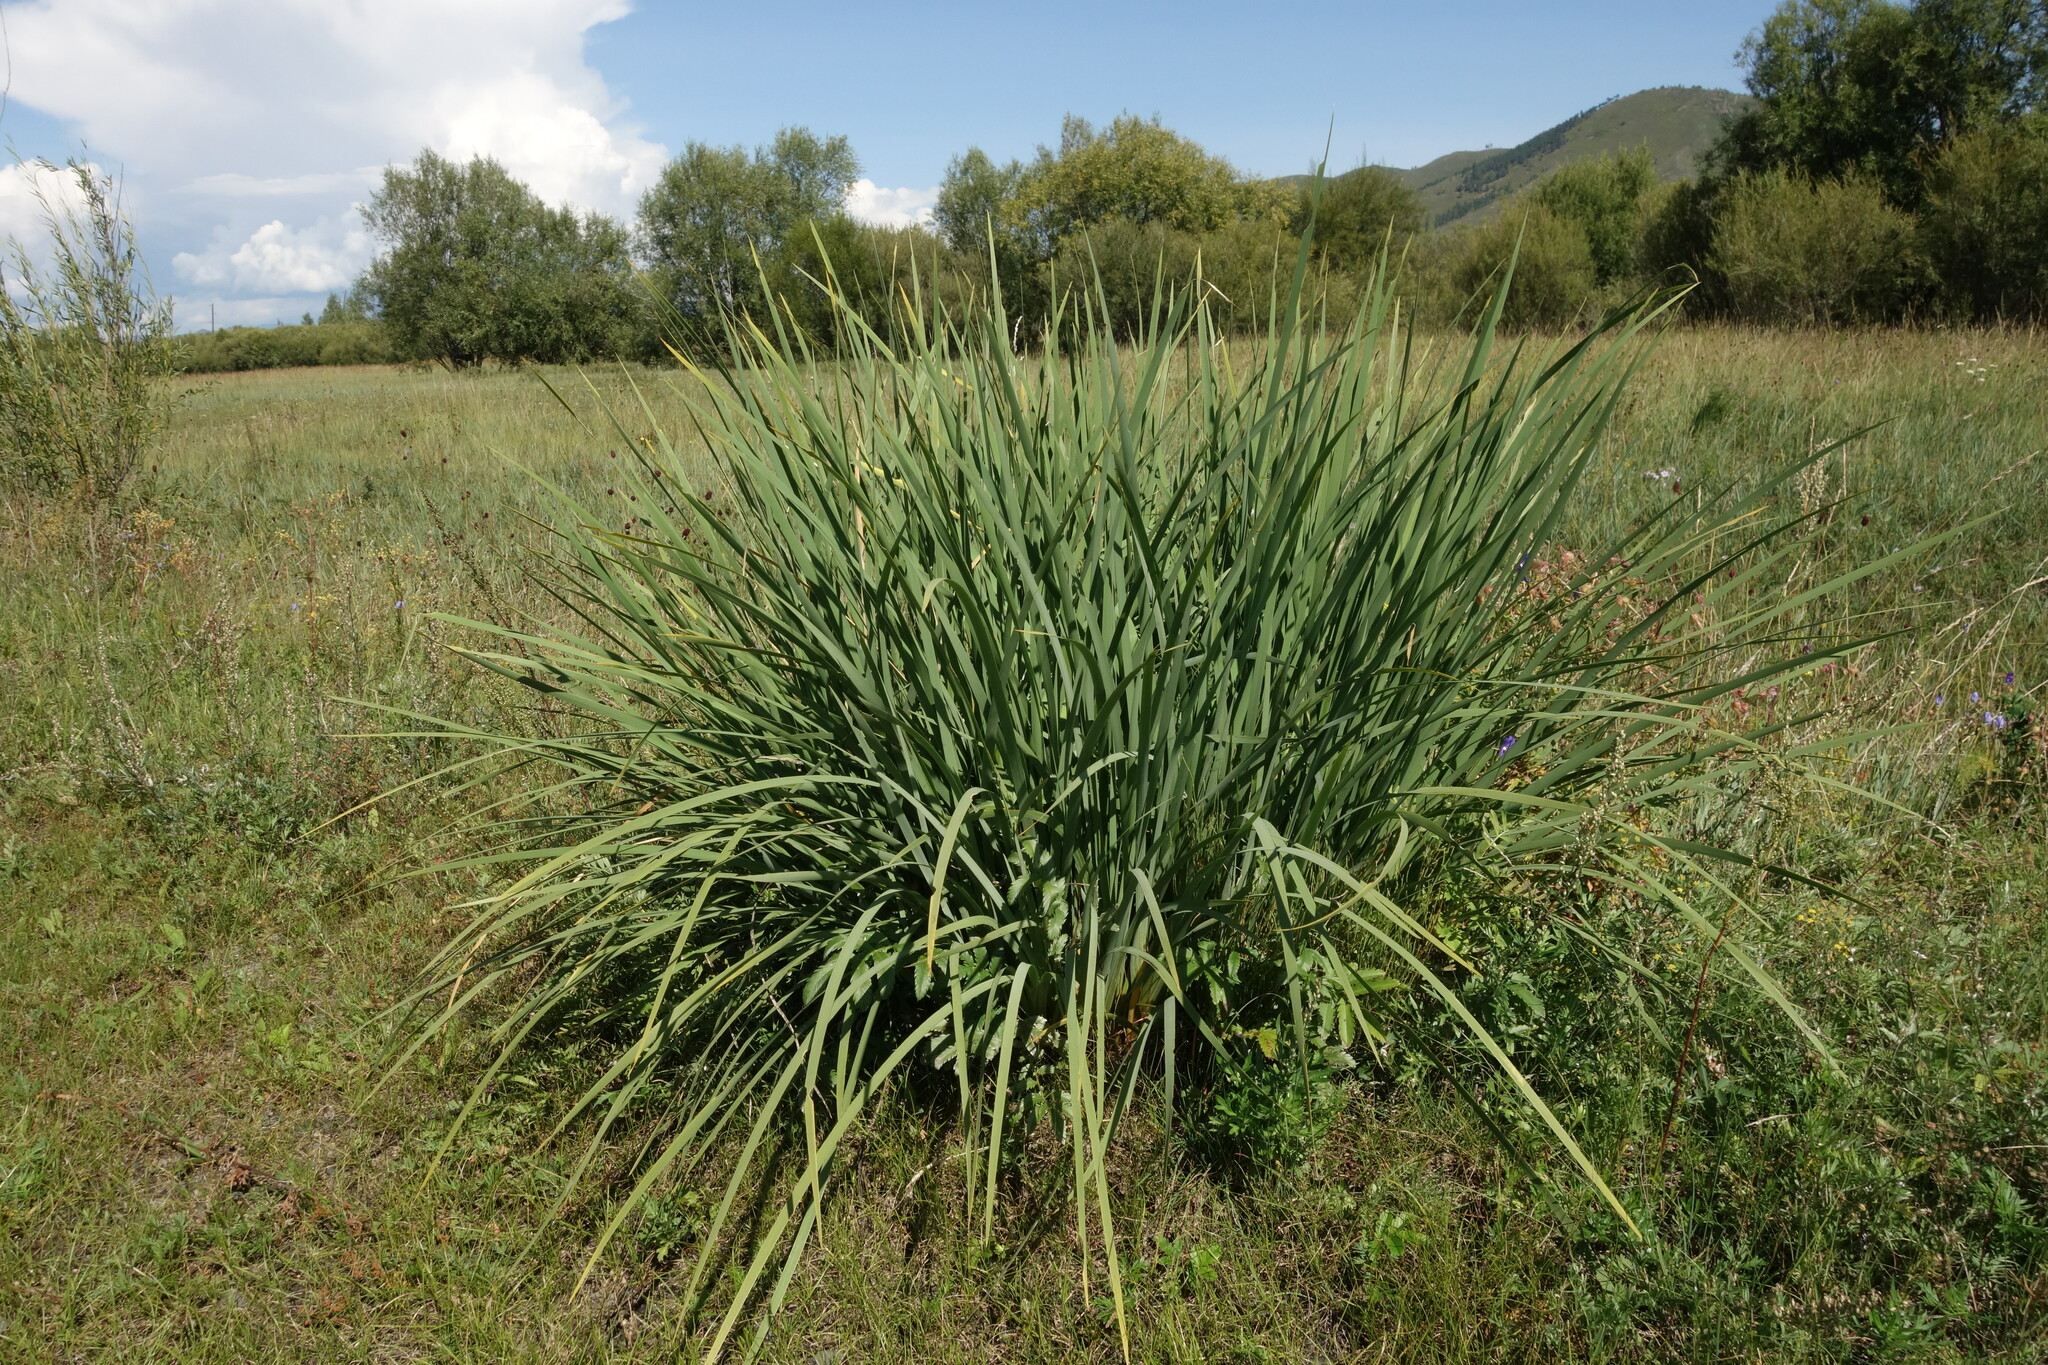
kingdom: Plantae
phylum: Tracheophyta
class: Liliopsida
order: Asparagales
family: Iridaceae
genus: Iris
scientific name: Iris lactea
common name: White-flower chinese iris
